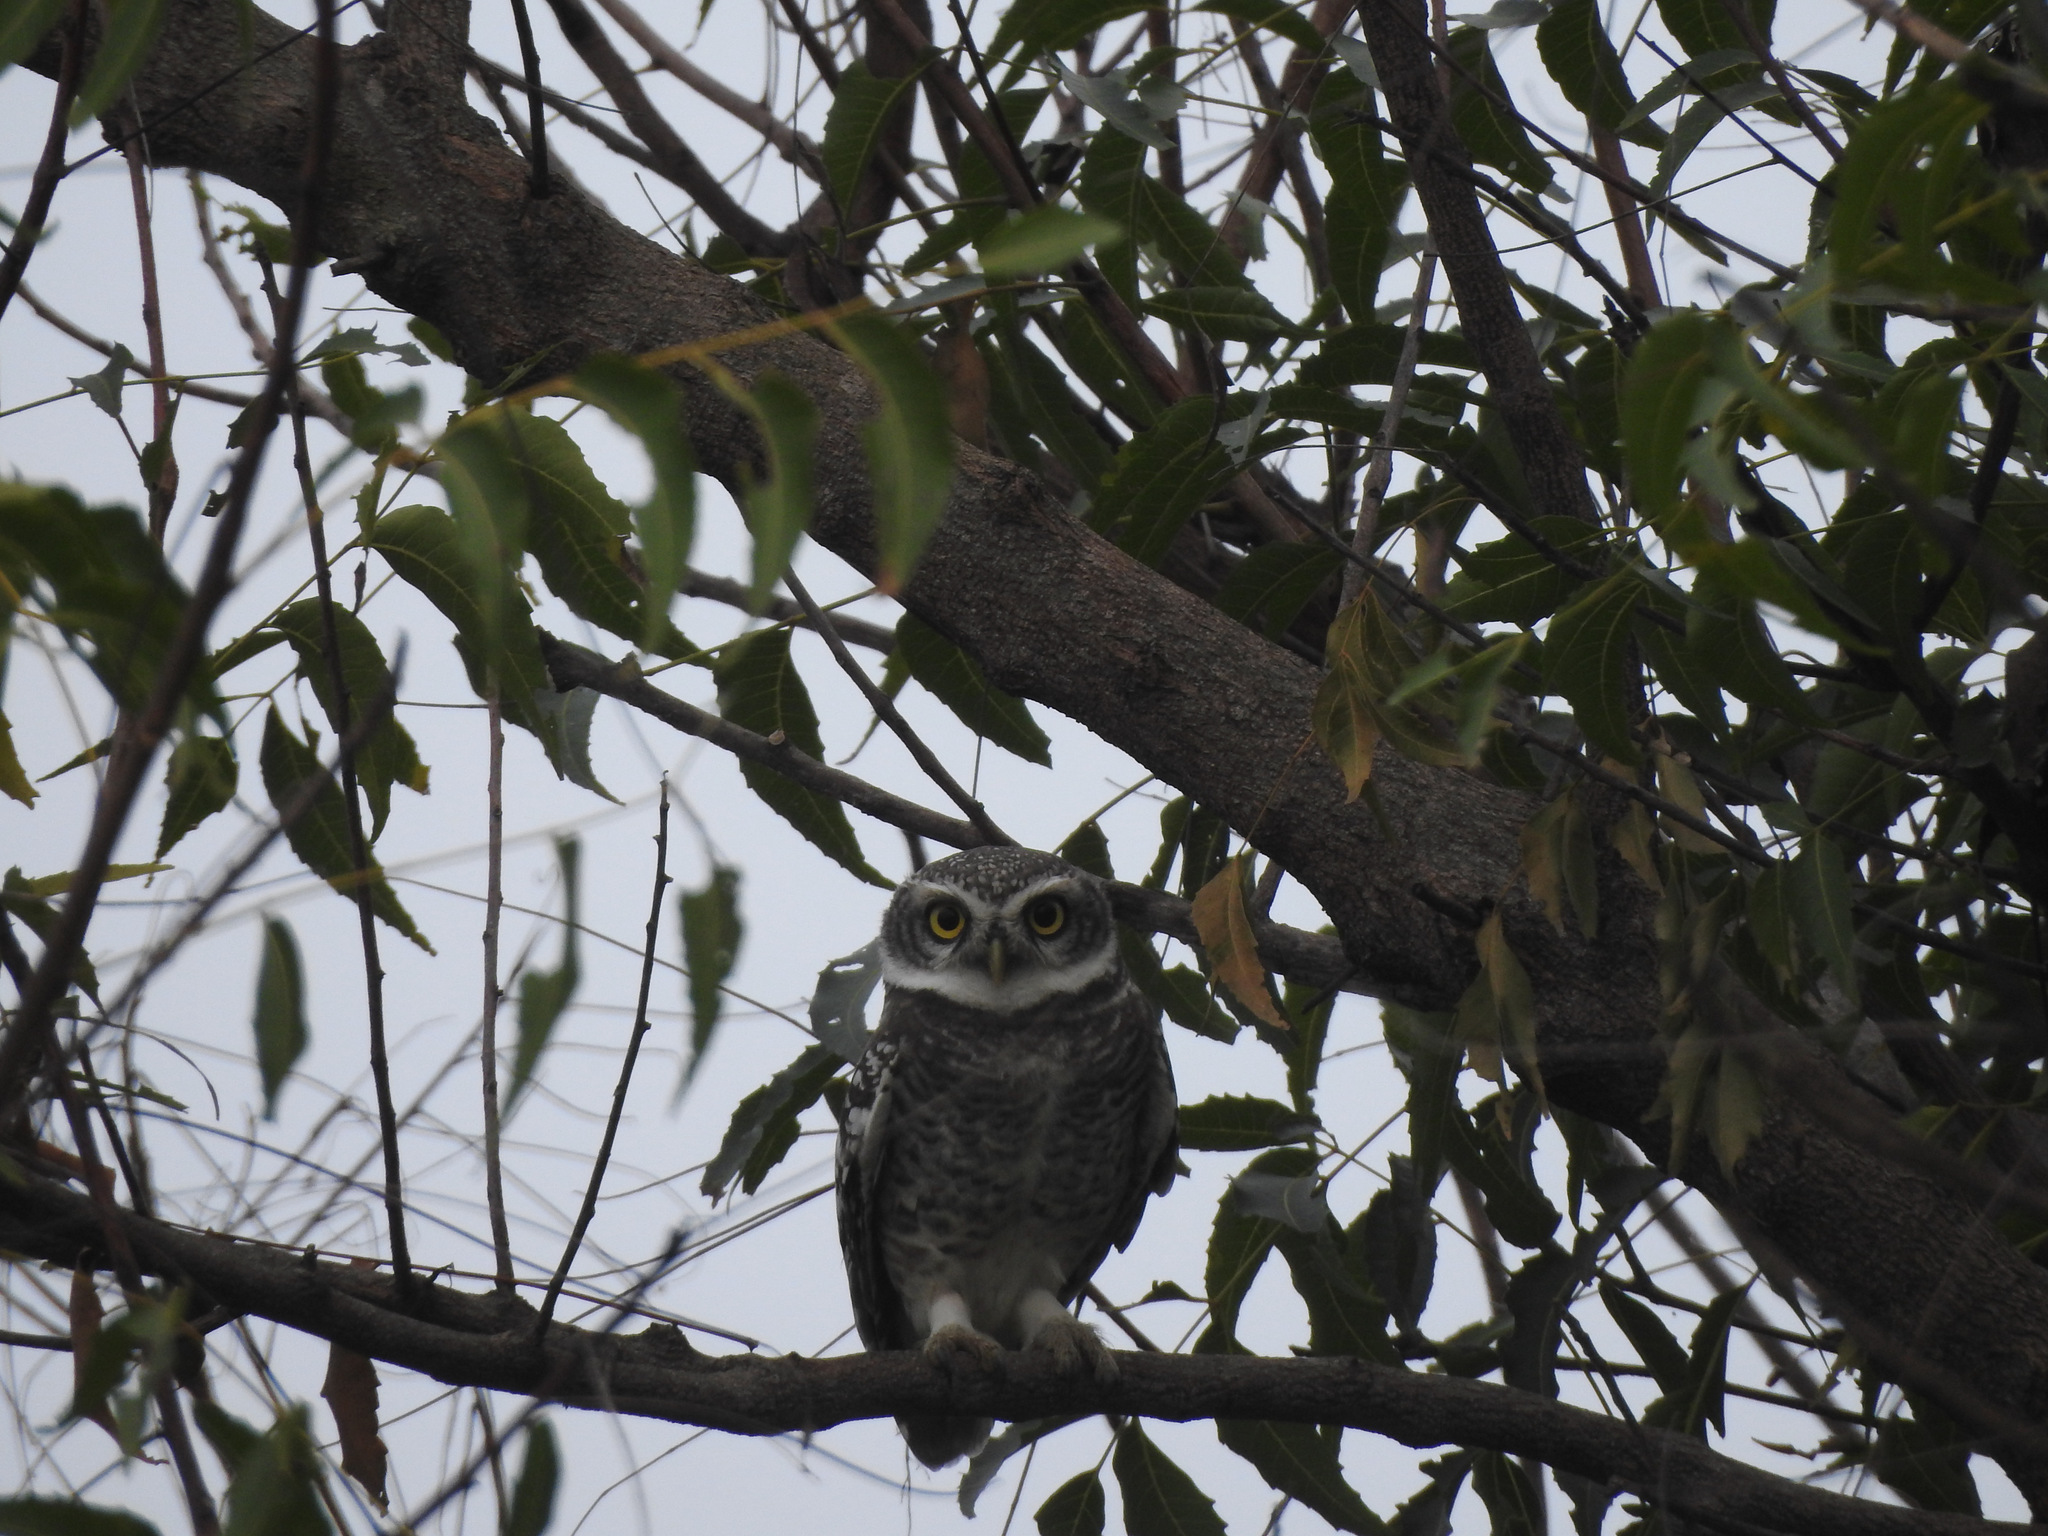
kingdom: Animalia
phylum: Chordata
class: Aves
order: Strigiformes
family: Strigidae
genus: Athene
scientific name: Athene brama
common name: Spotted owlet
